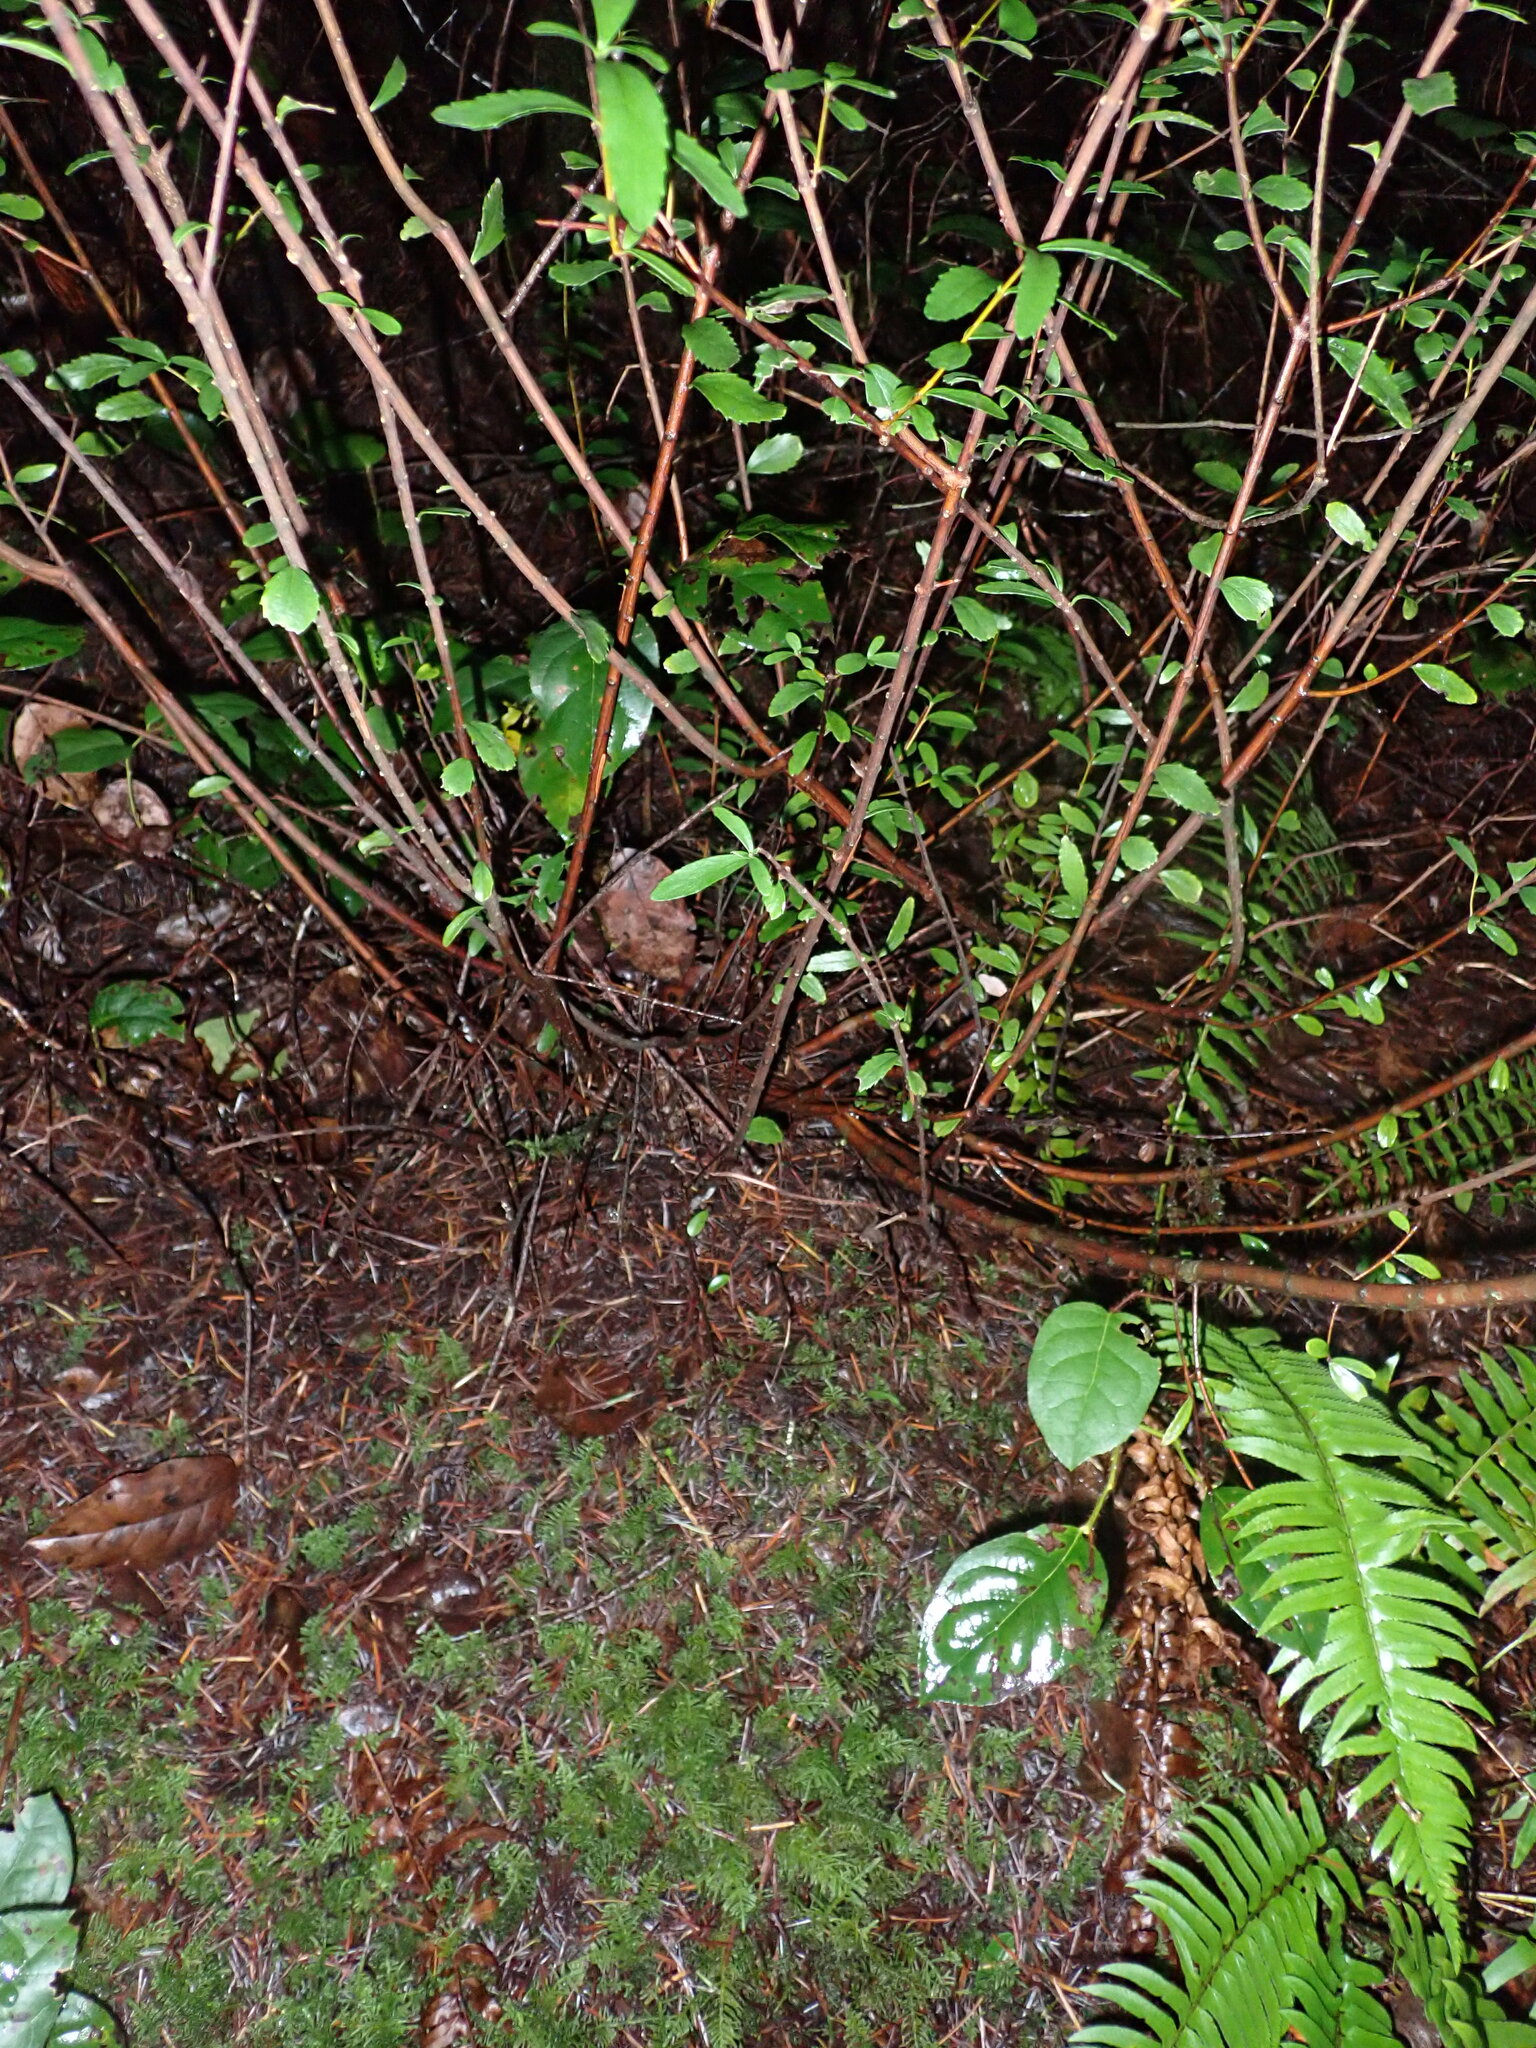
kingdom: Plantae
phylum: Tracheophyta
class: Magnoliopsida
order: Celastrales
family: Celastraceae
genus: Paxistima
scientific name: Paxistima myrsinites
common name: Mountain-lover
